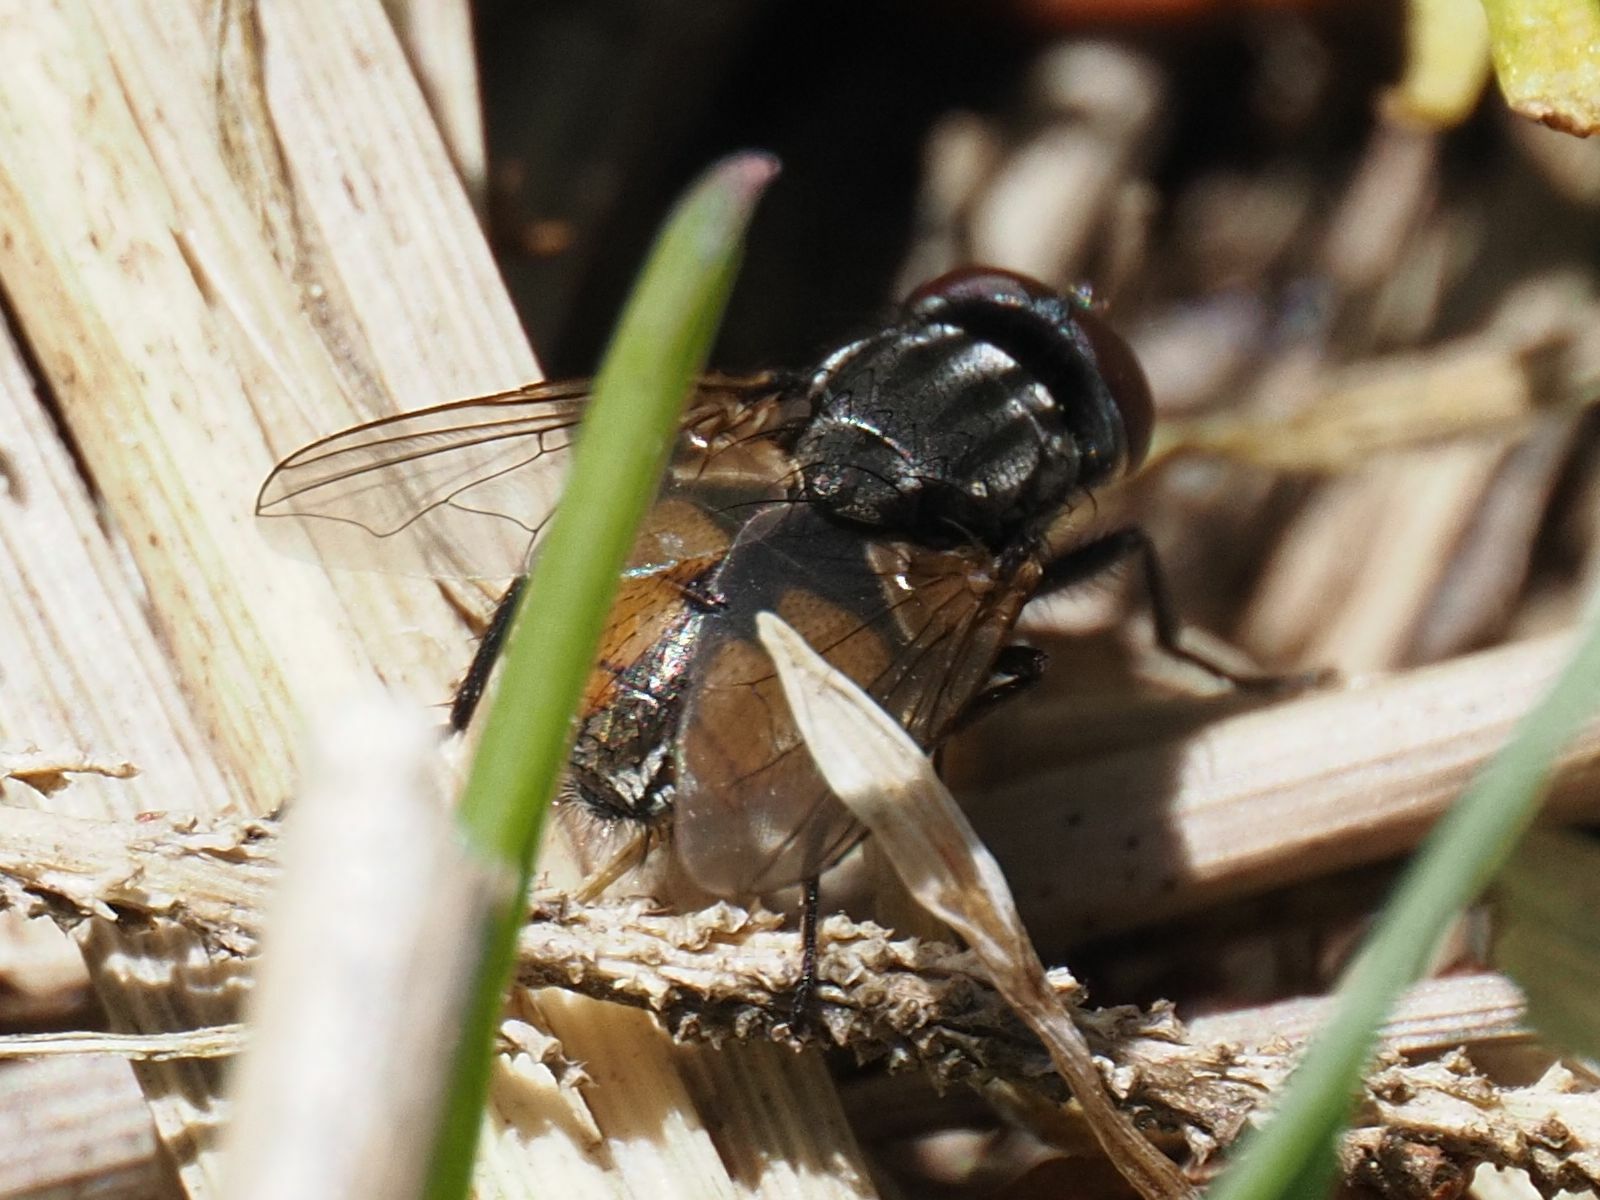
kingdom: Animalia
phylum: Arthropoda
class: Insecta
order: Diptera
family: Muscidae
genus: Musca
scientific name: Musca autumnalis
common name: Face fly
